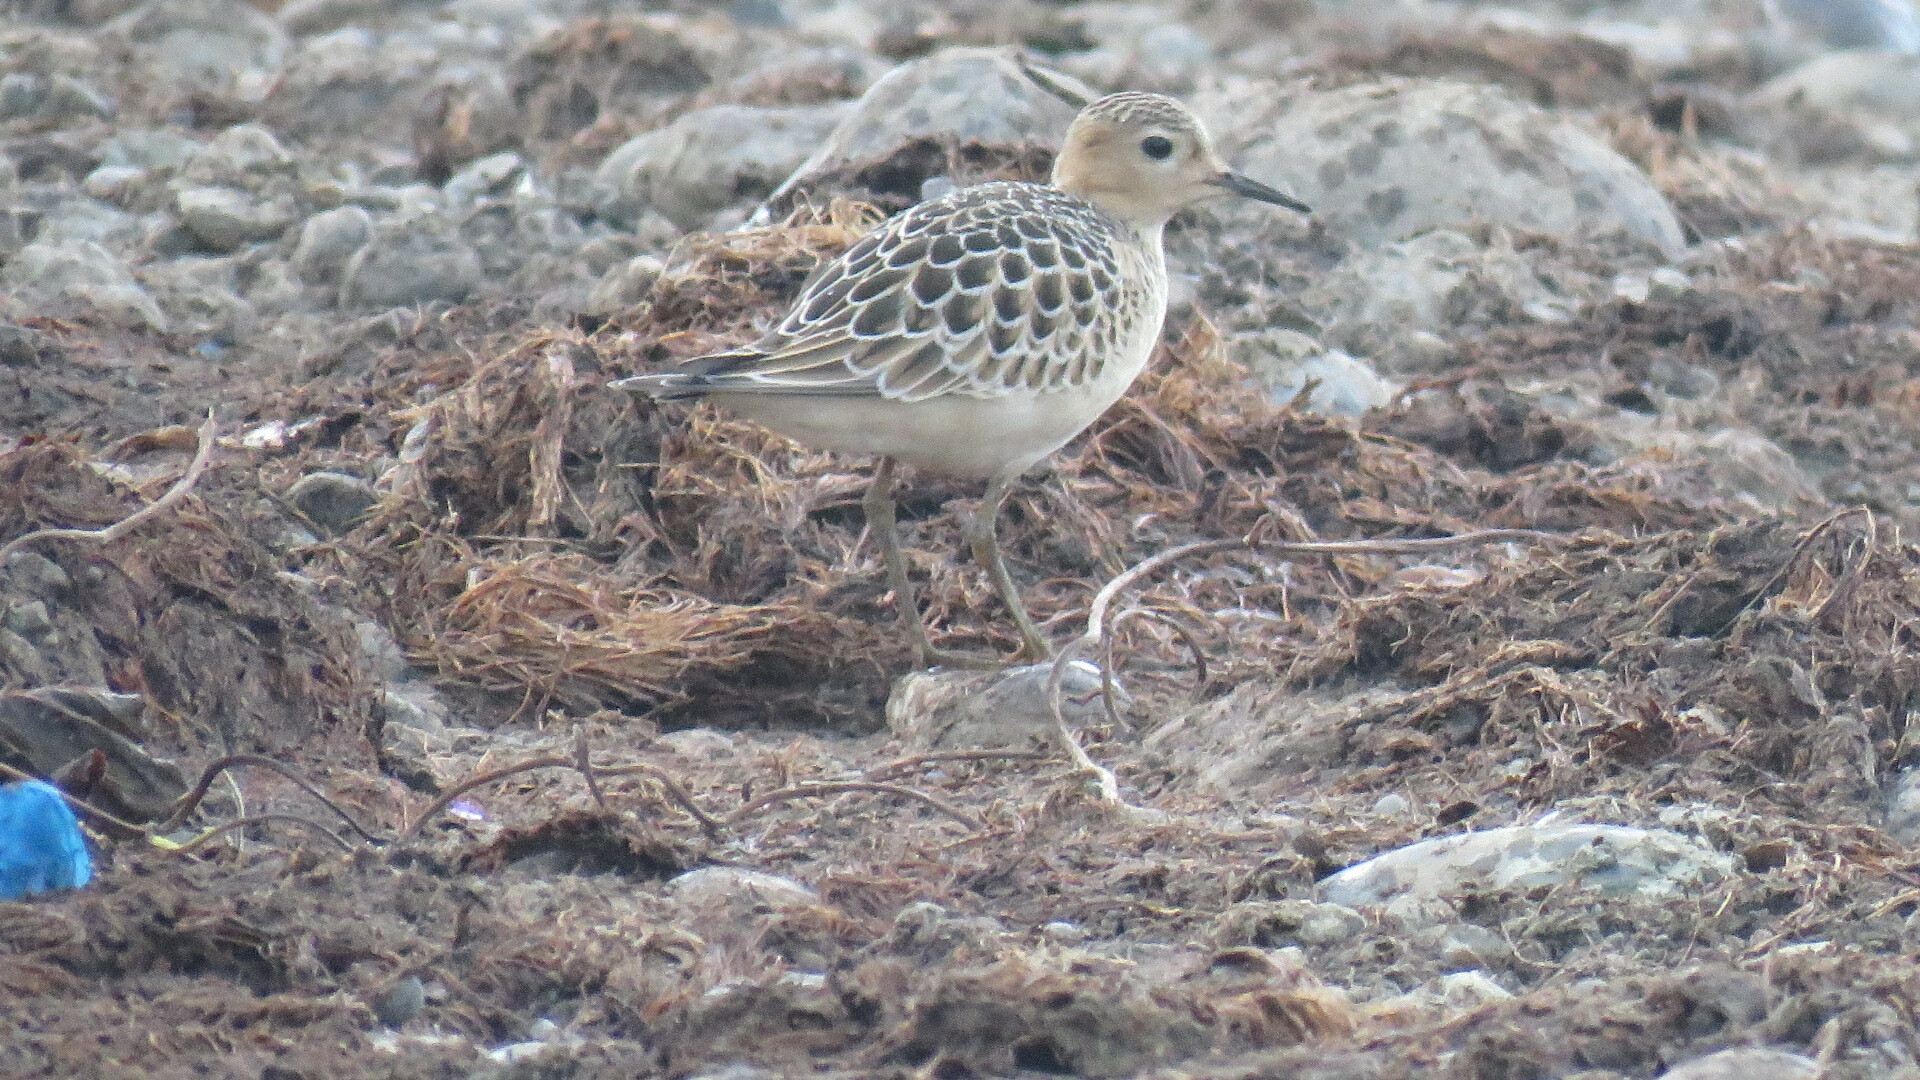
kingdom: Animalia
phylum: Chordata
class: Aves
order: Charadriiformes
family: Scolopacidae
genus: Calidris
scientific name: Calidris subruficollis
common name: Buff-breasted sandpiper
